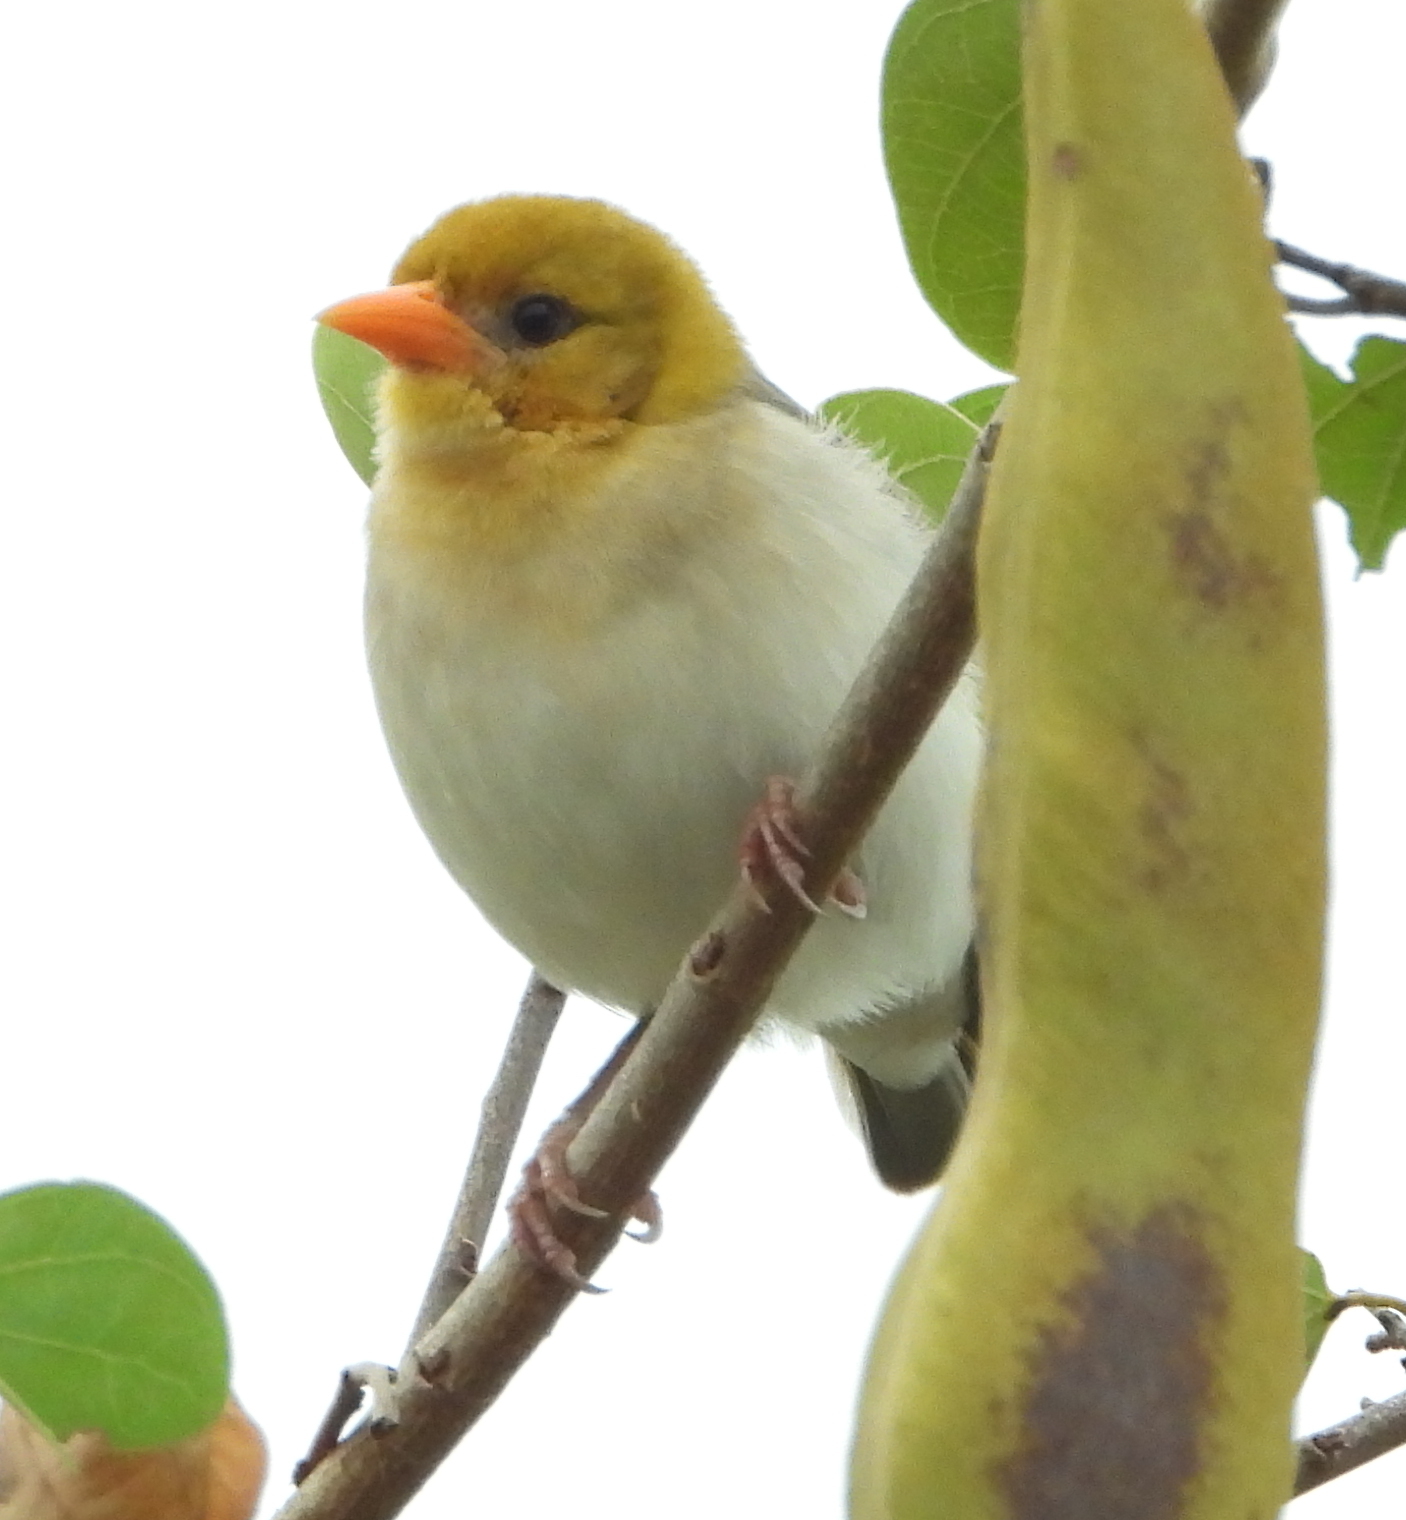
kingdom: Animalia
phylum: Chordata
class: Aves
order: Passeriformes
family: Ploceidae
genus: Anaplectes
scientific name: Anaplectes rubriceps
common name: Red-headed weaver
